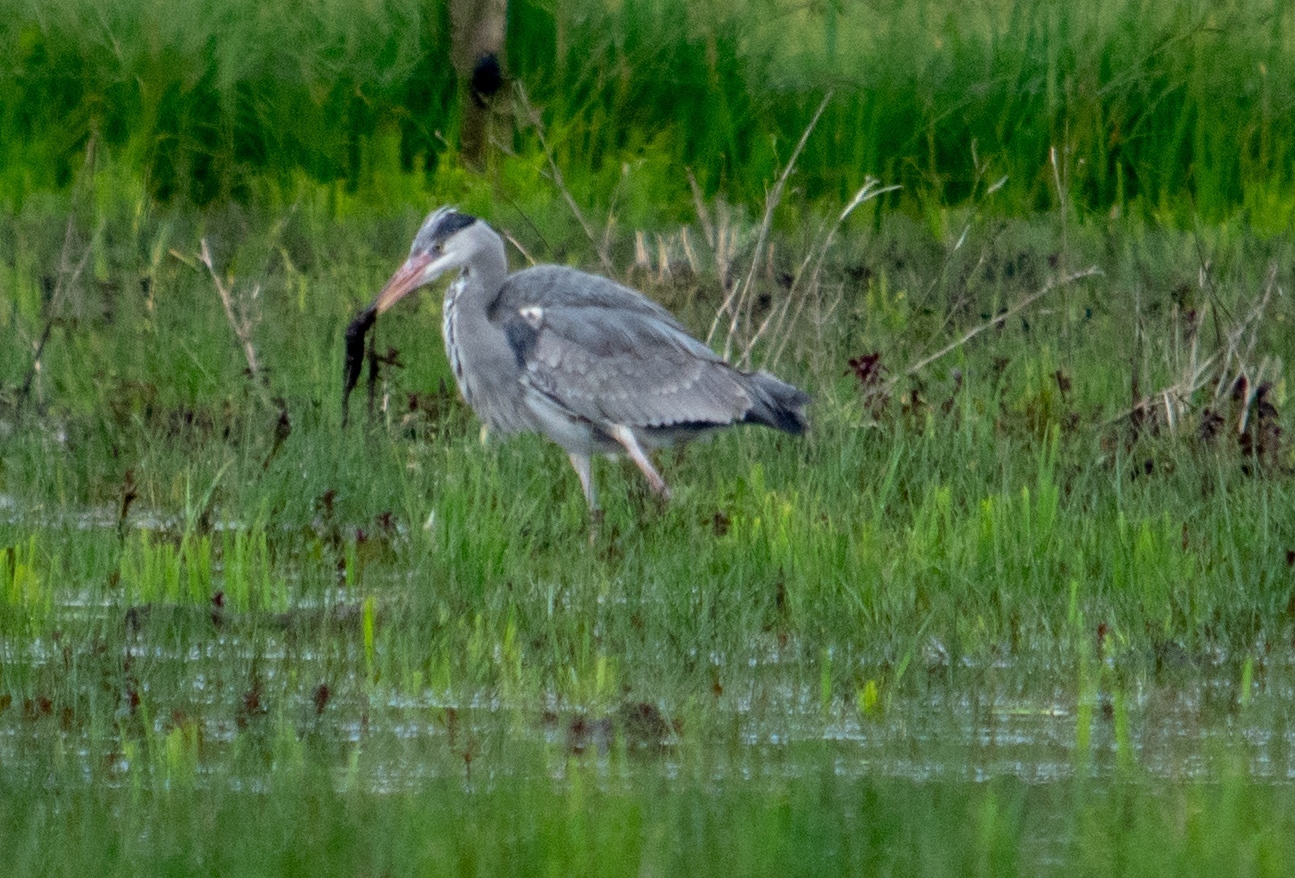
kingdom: Animalia
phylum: Chordata
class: Aves
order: Pelecaniformes
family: Ardeidae
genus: Ardea
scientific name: Ardea cinerea
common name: Grey heron
